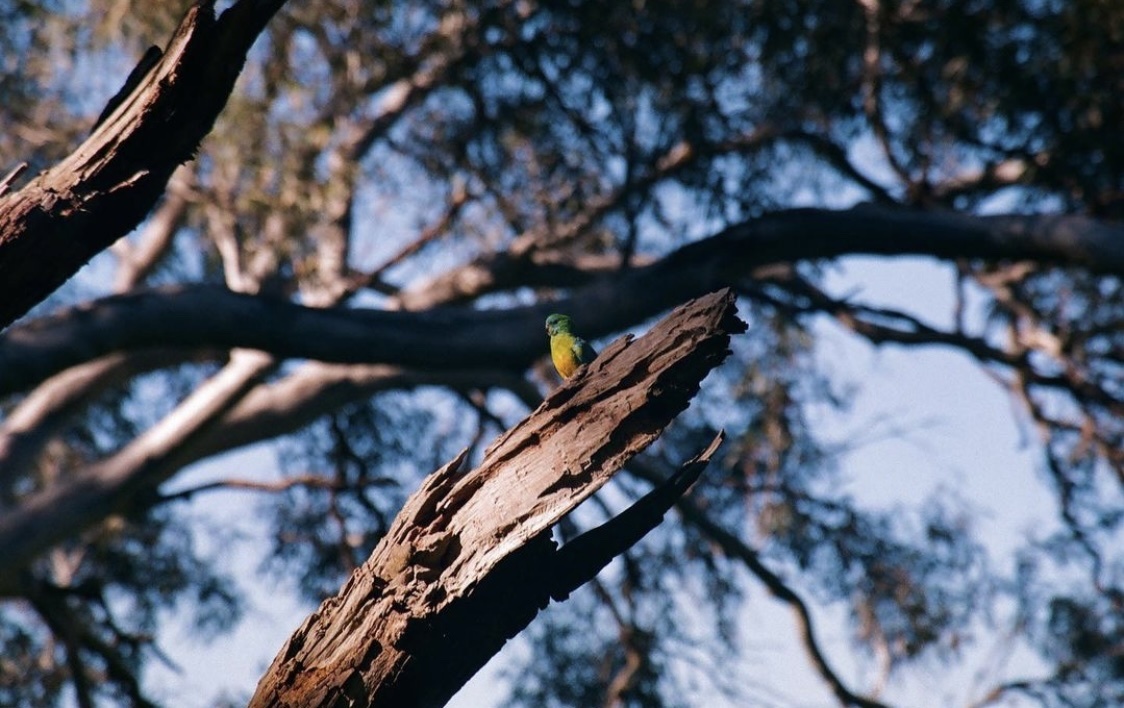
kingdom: Animalia
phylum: Chordata
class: Aves
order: Psittaciformes
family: Psittacidae
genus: Psephotus
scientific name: Psephotus haematonotus
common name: Red-rumped parrot
